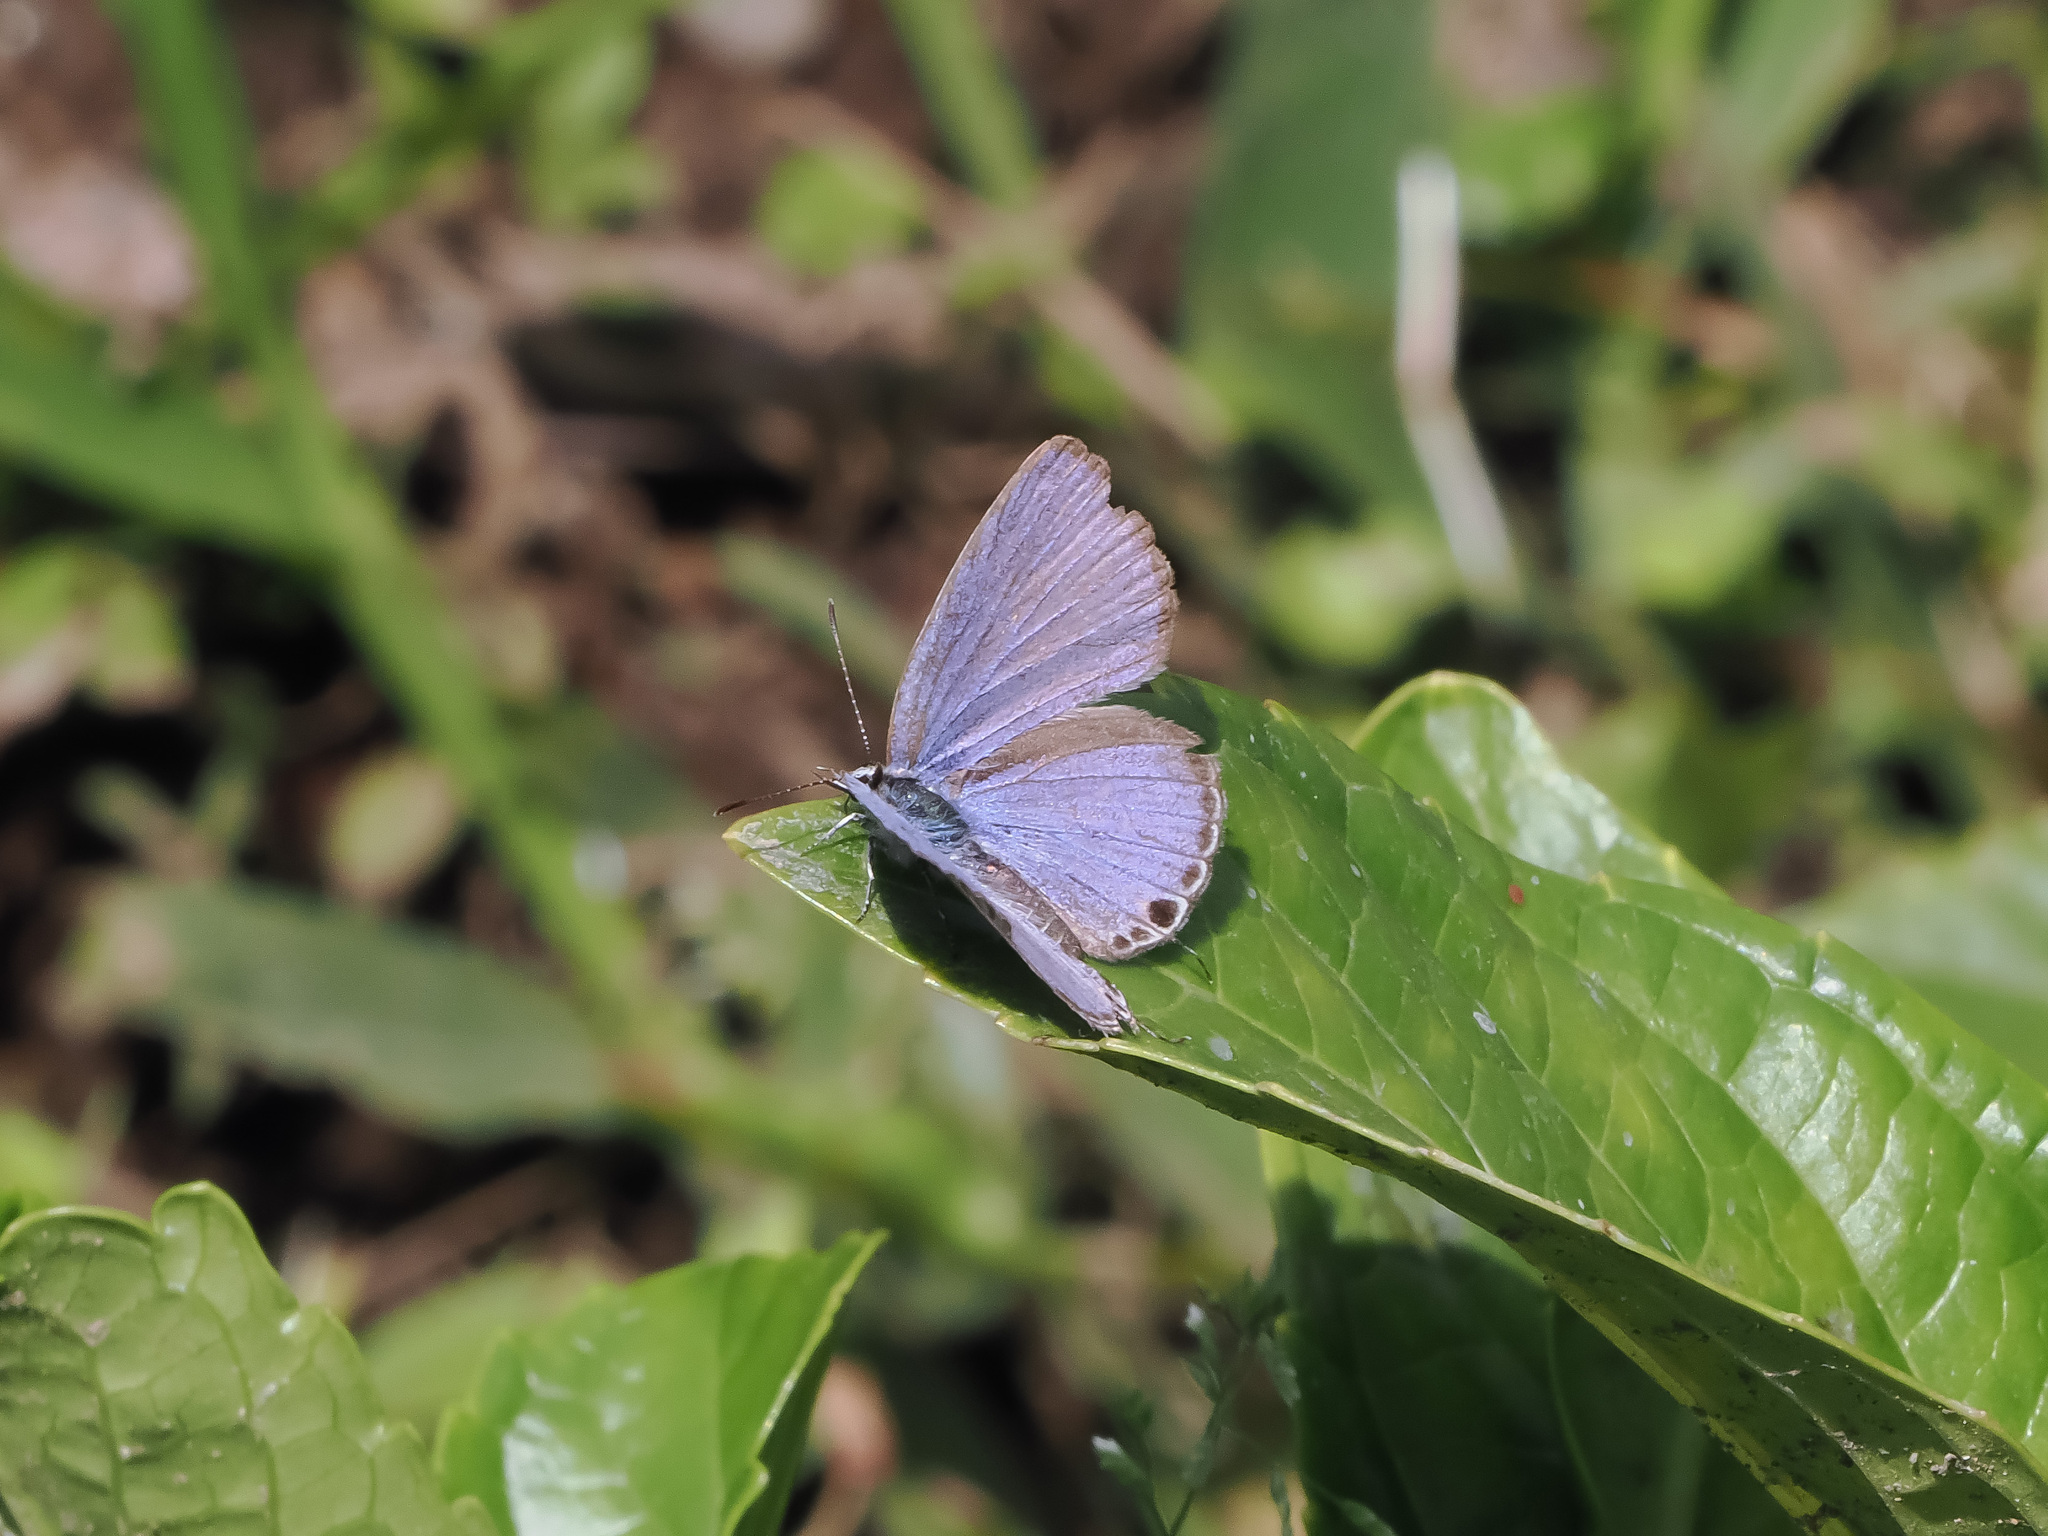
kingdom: Animalia
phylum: Arthropoda
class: Insecta
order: Lepidoptera
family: Lycaenidae
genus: Luthrodes
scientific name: Luthrodes pandava
